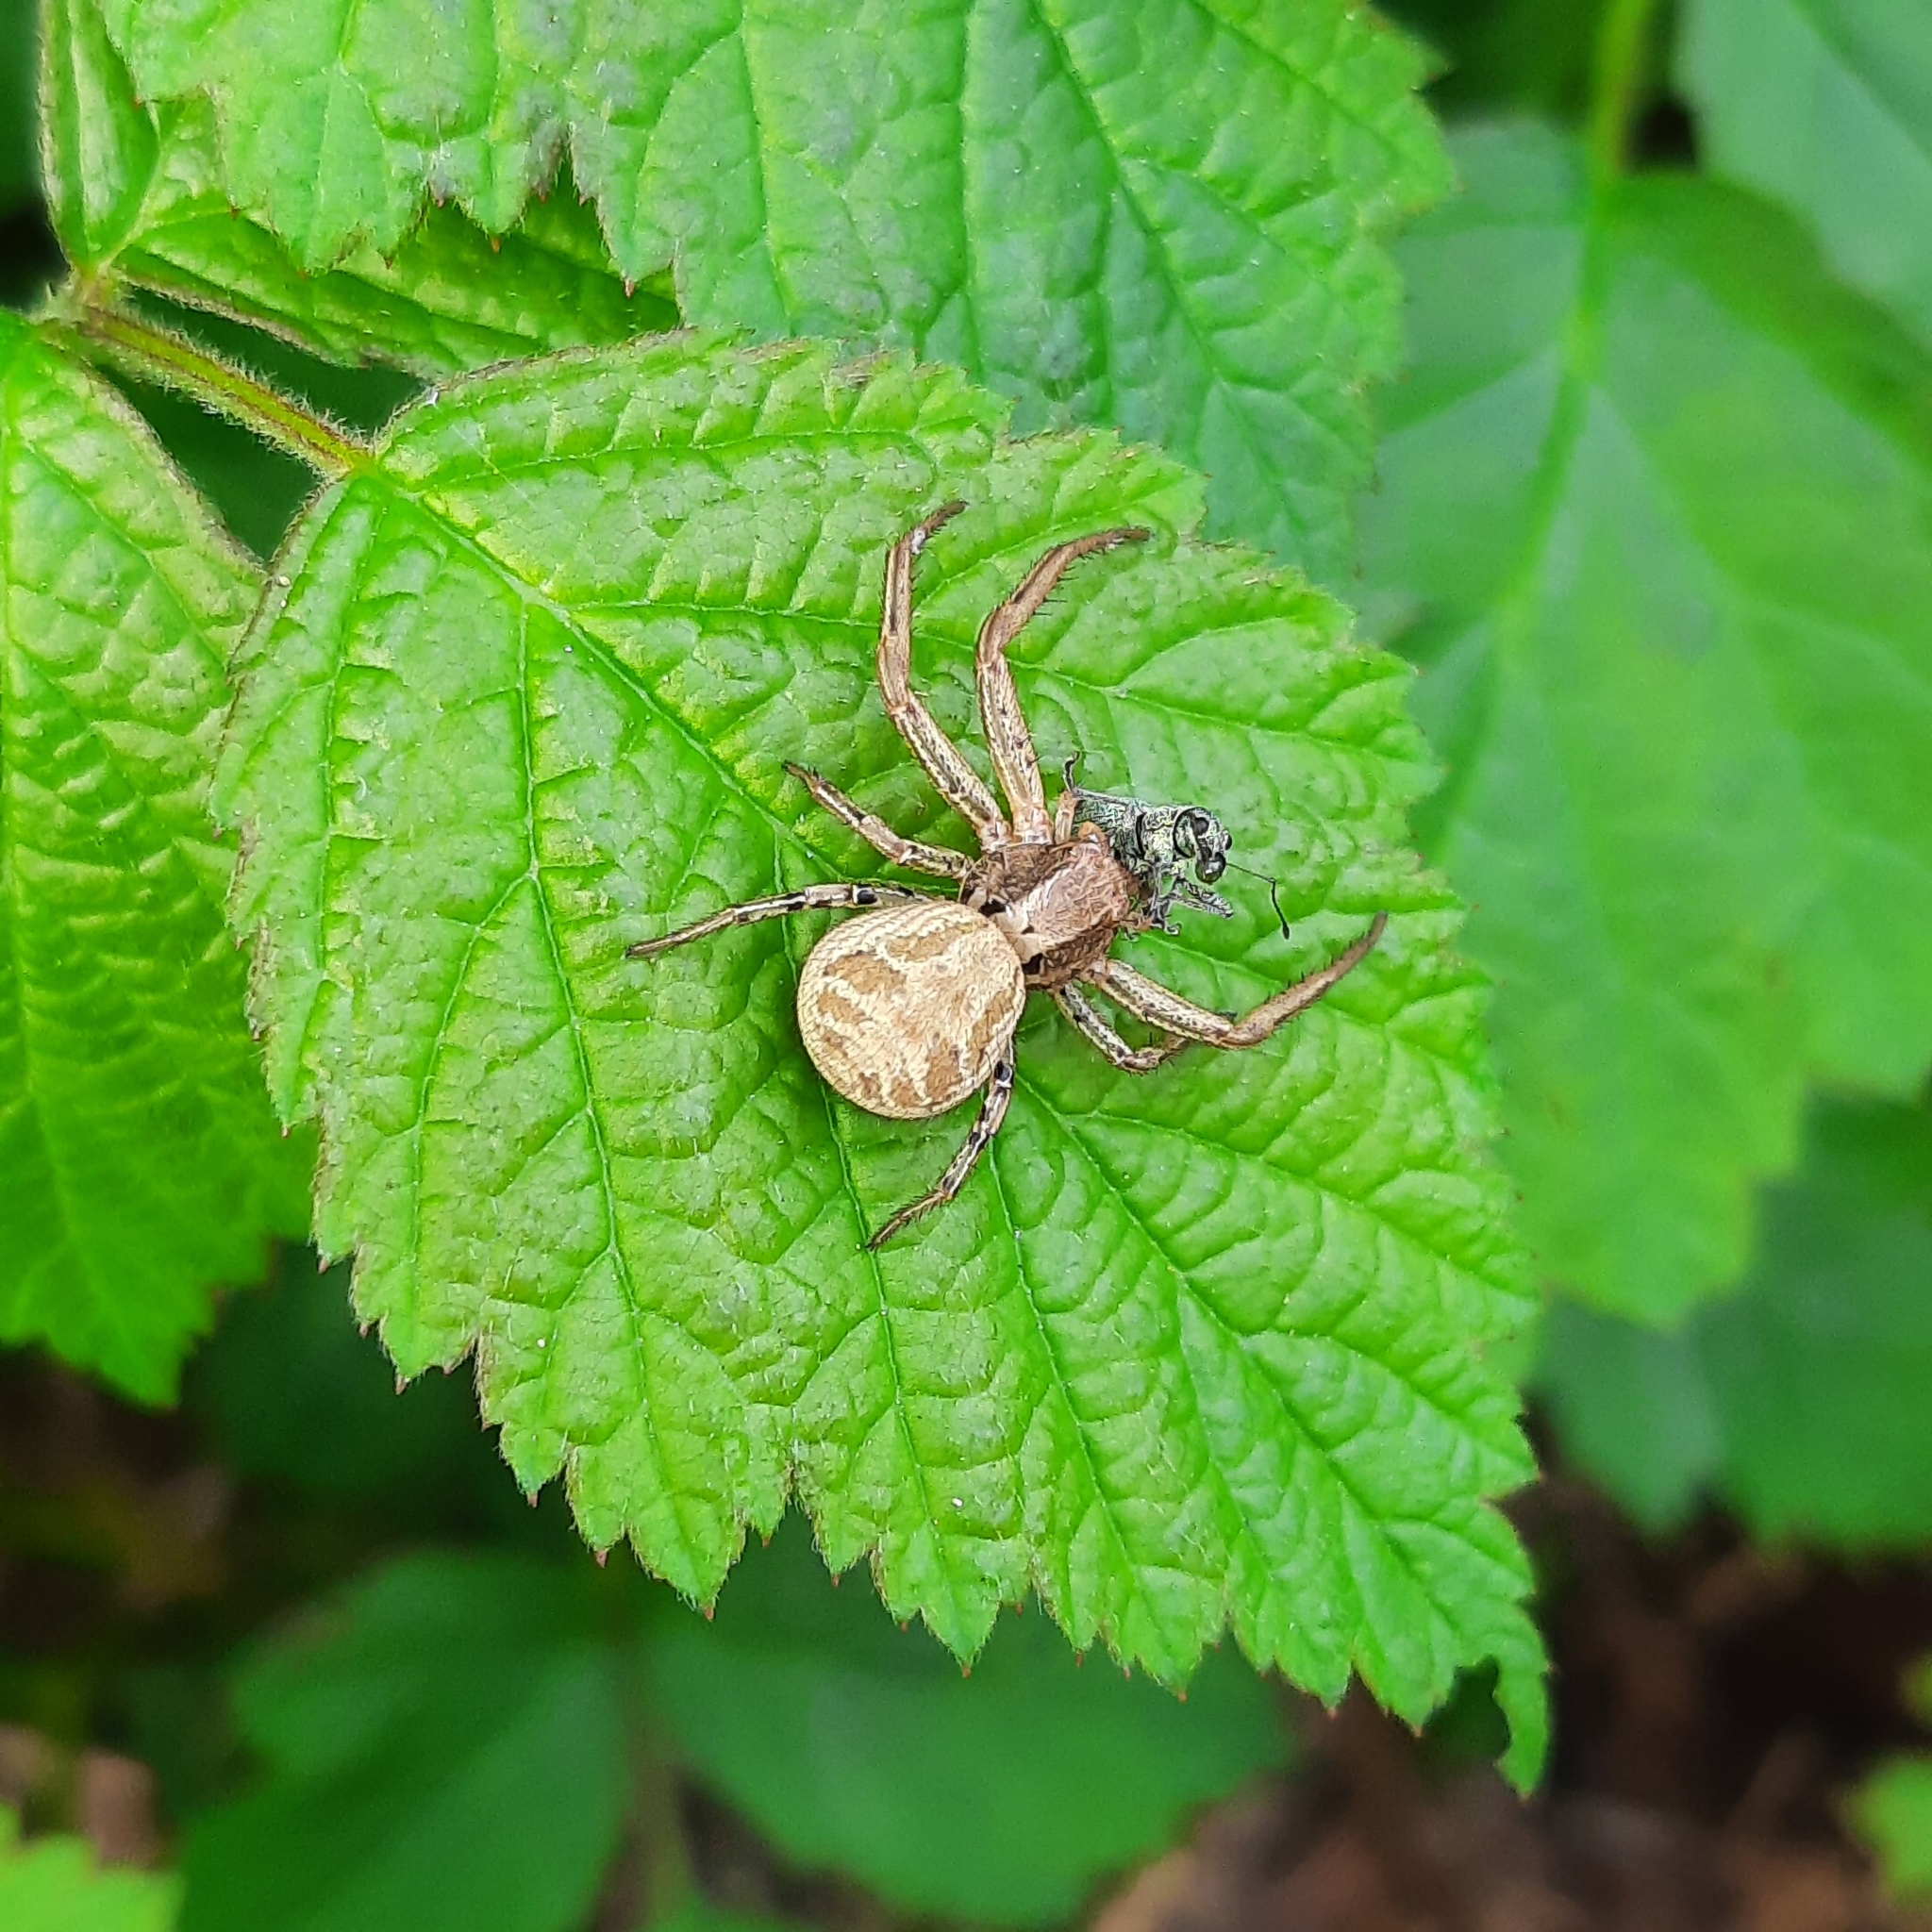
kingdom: Animalia
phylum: Arthropoda
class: Arachnida
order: Araneae
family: Thomisidae
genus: Xysticus
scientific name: Xysticus
